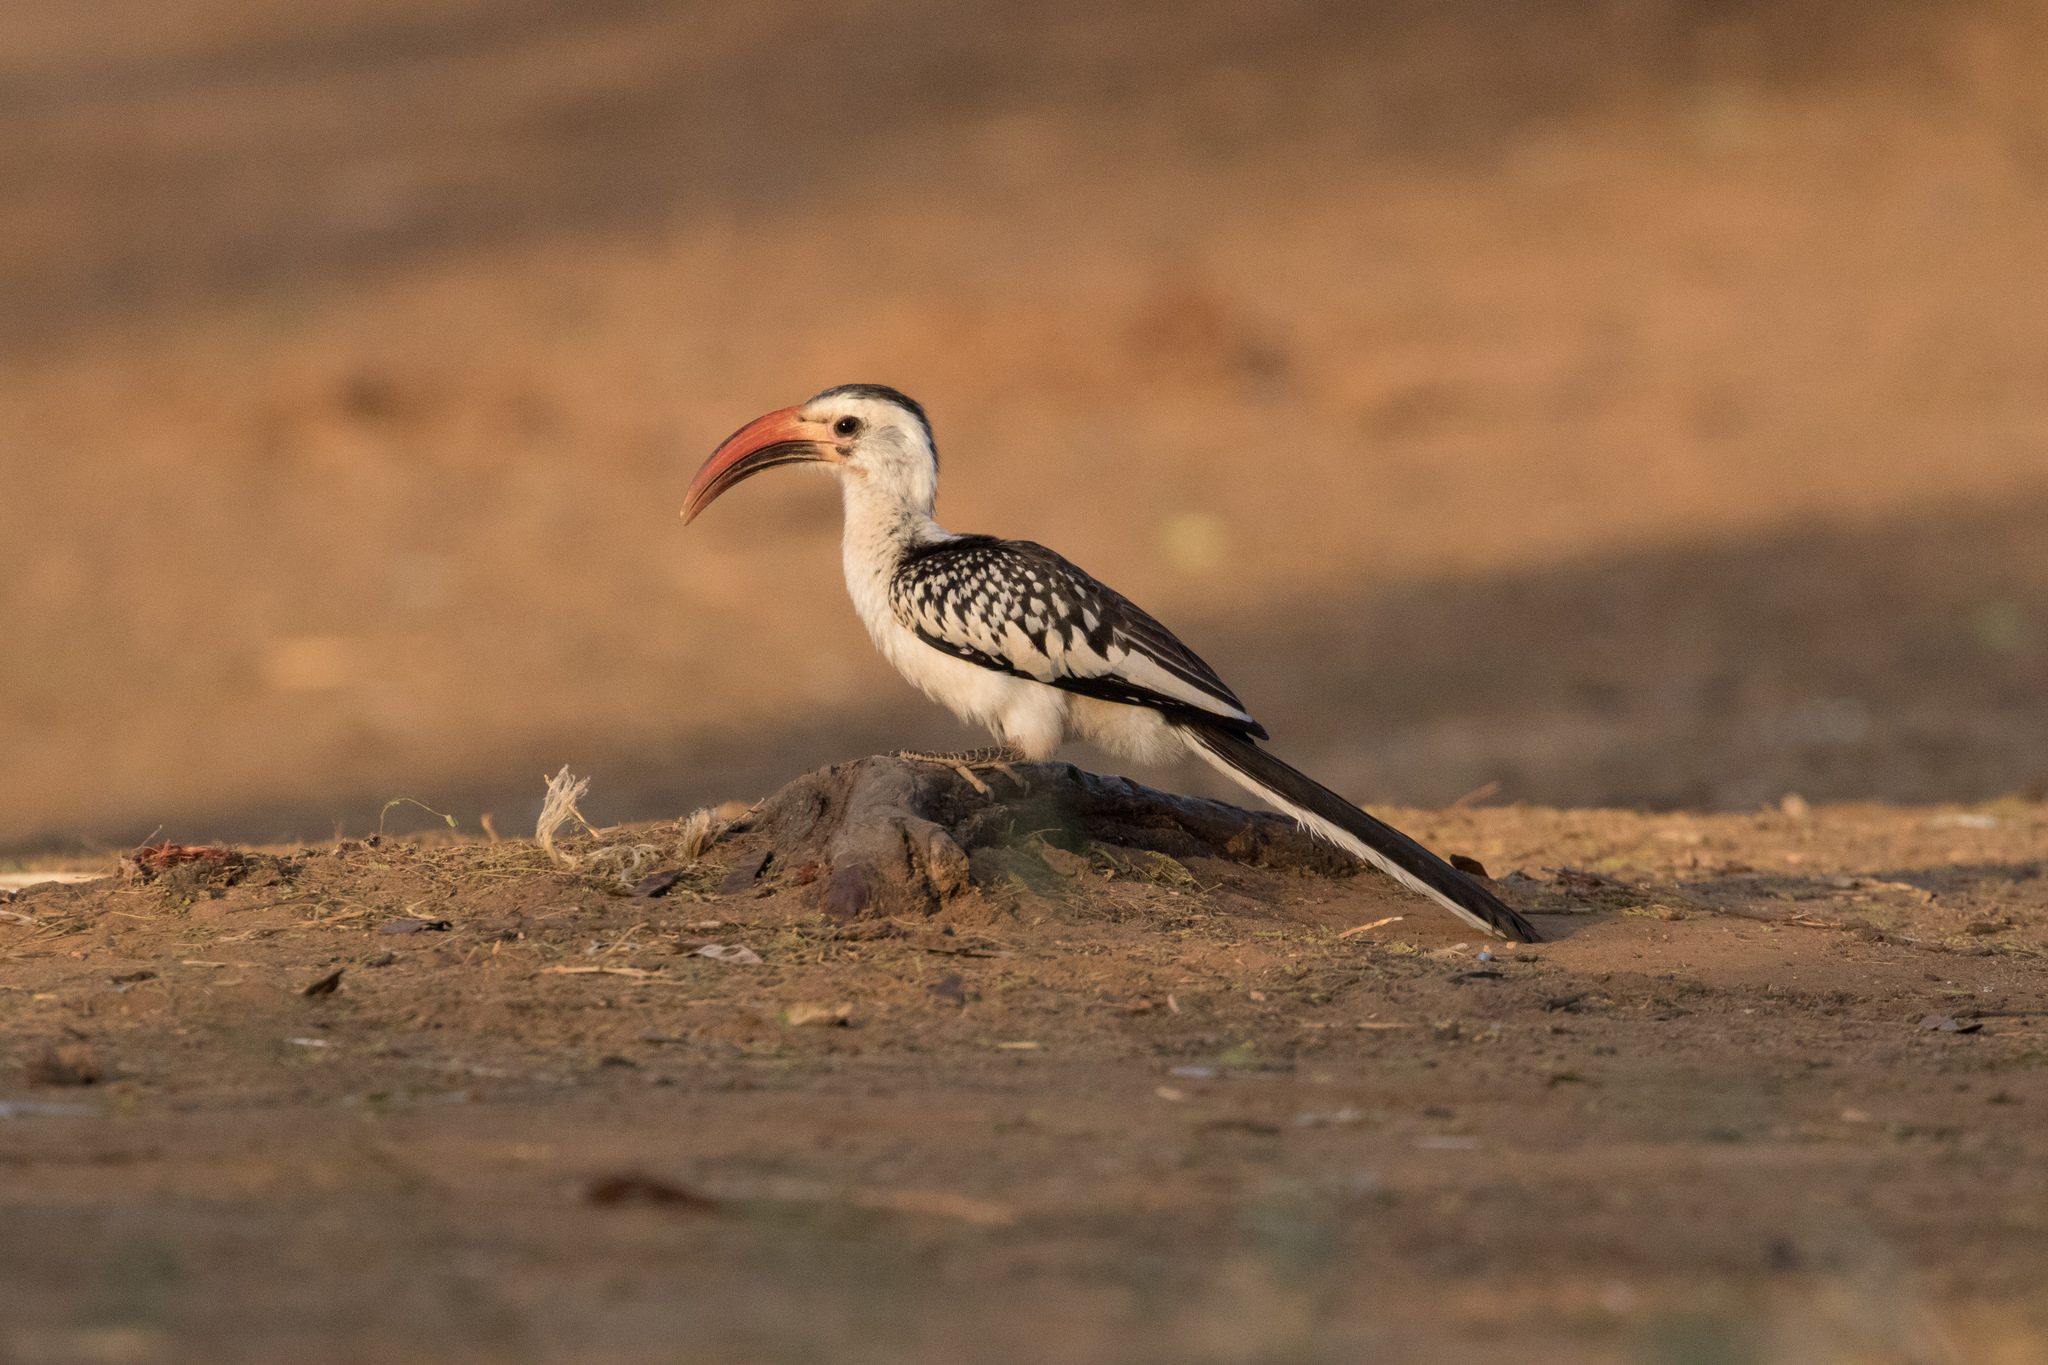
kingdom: Animalia
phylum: Chordata
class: Aves
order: Bucerotiformes
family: Bucerotidae
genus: Tockus
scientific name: Tockus erythrorhynchus
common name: Northern red-billed hornbill
